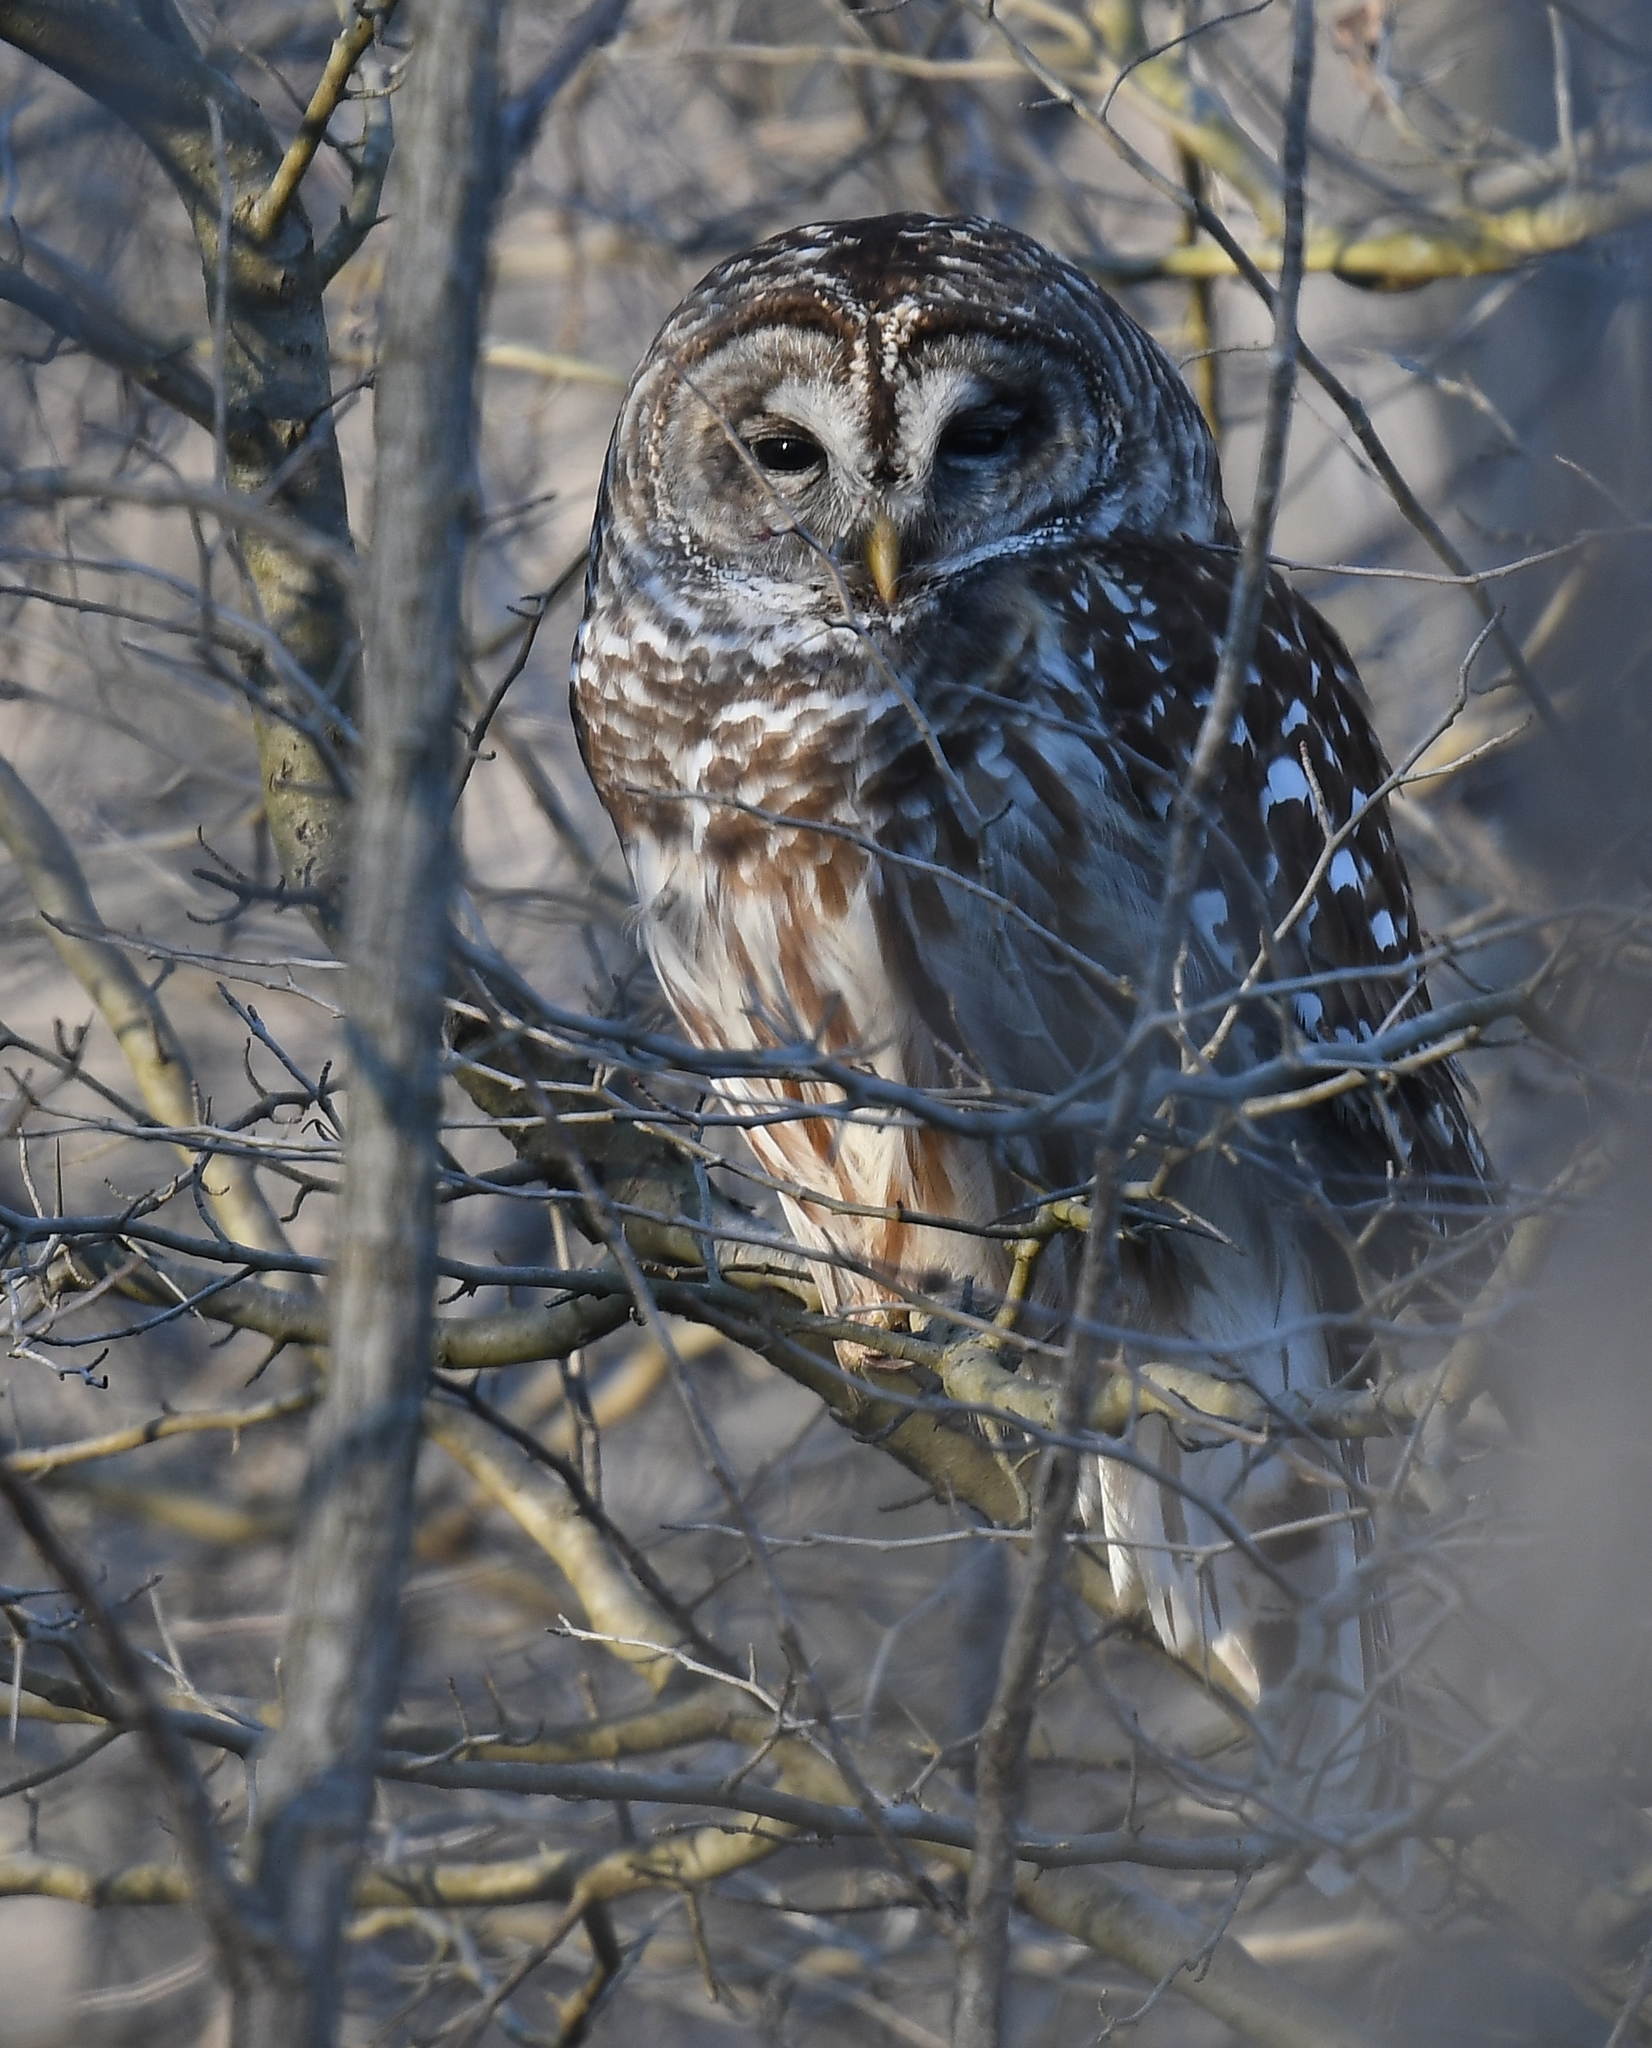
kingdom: Animalia
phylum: Chordata
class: Aves
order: Strigiformes
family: Strigidae
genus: Strix
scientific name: Strix varia
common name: Barred owl
